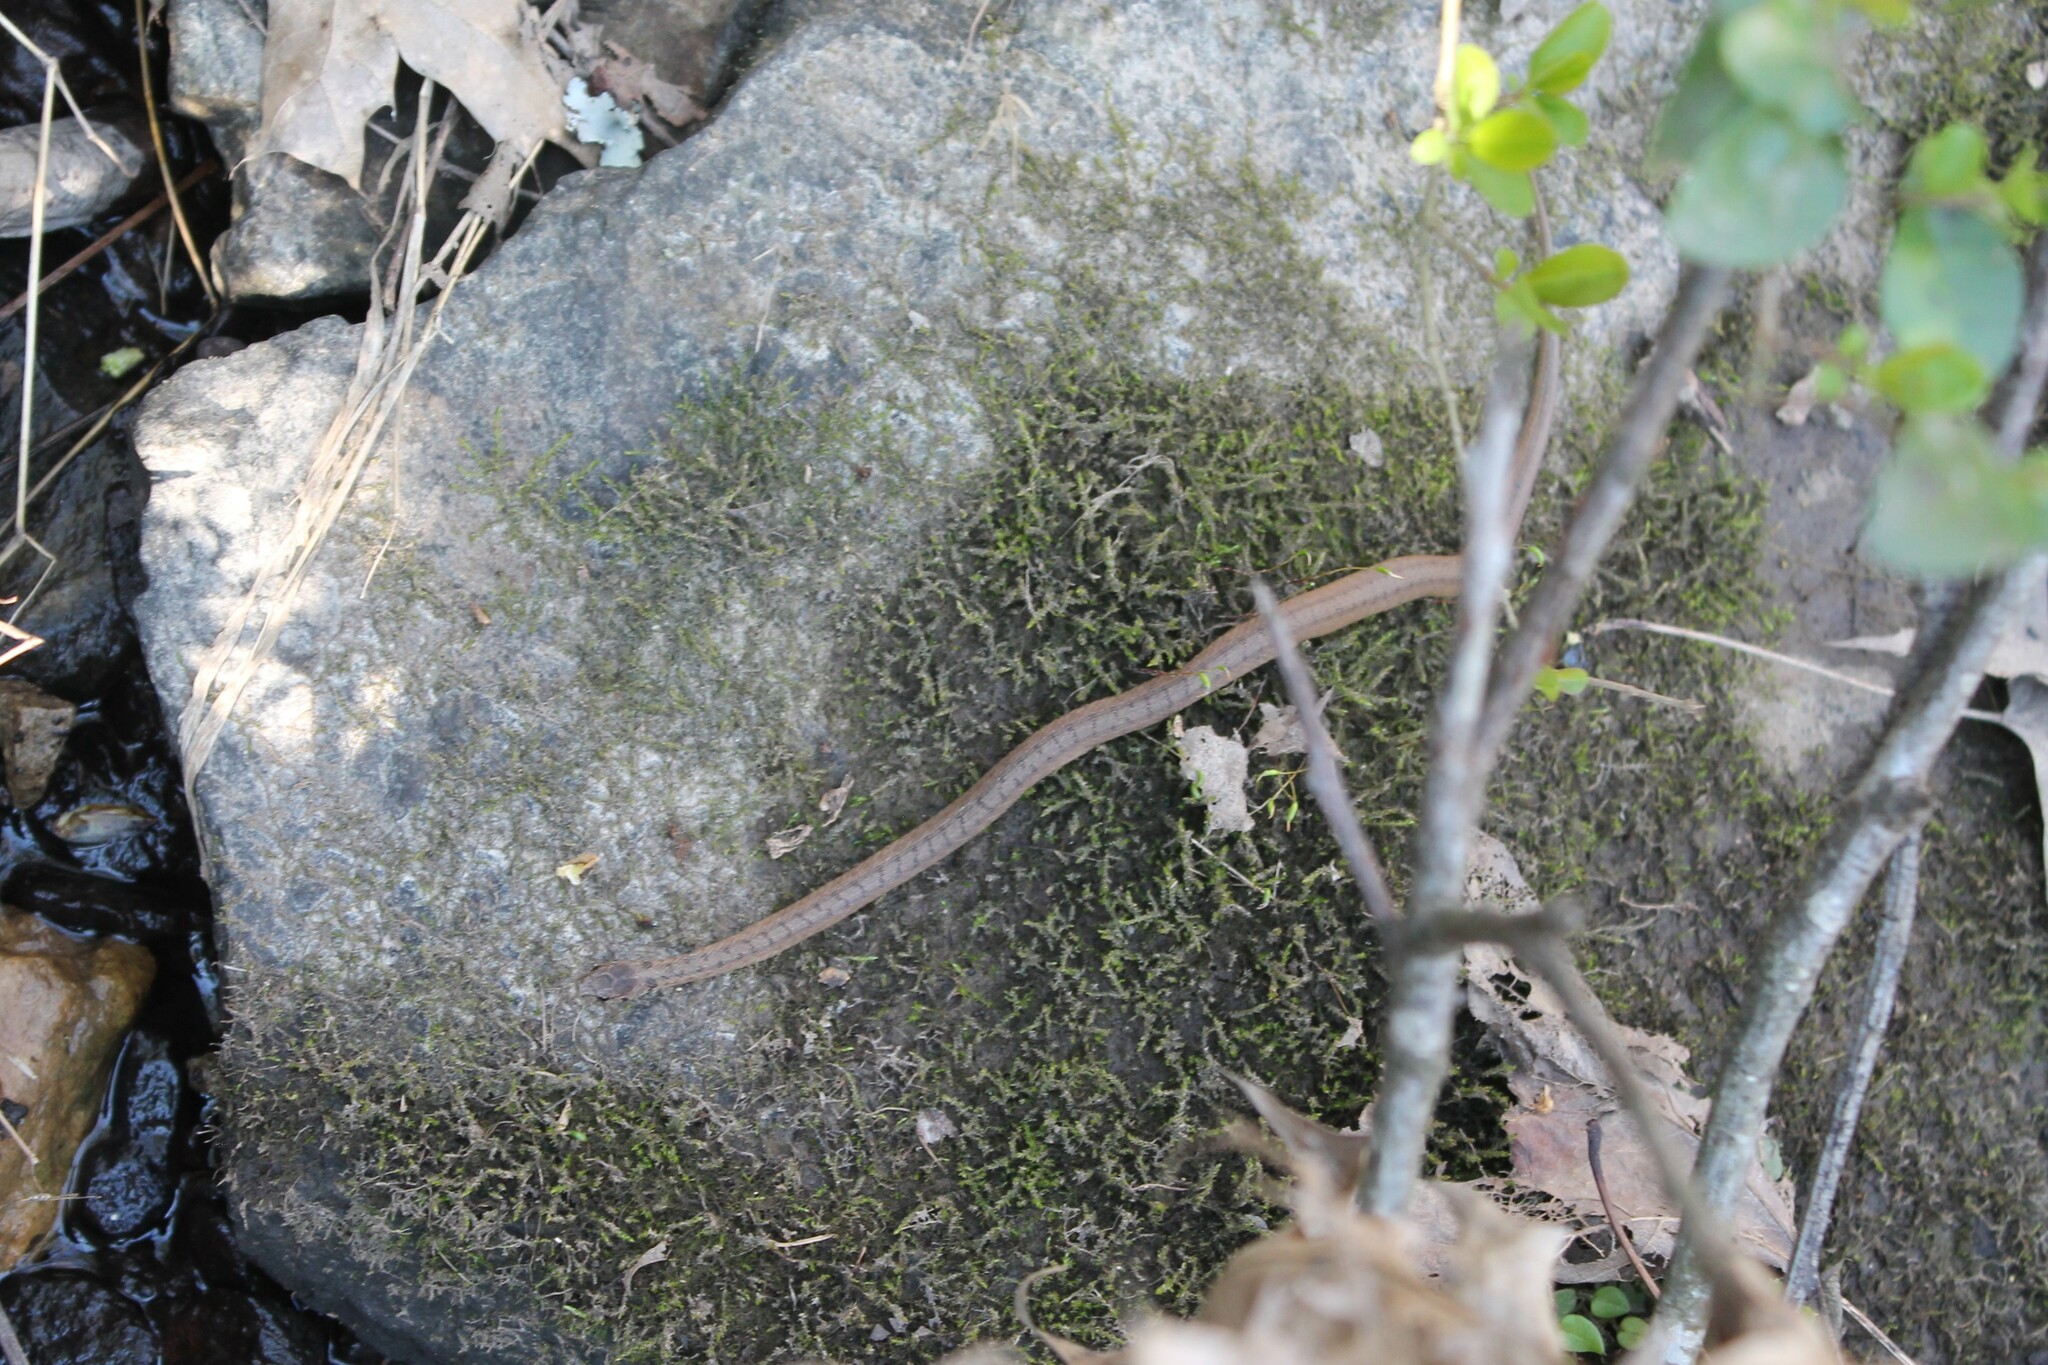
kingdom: Animalia
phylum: Chordata
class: Squamata
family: Colubridae
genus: Storeria
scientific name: Storeria dekayi
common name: (dekay’s) brown snake
